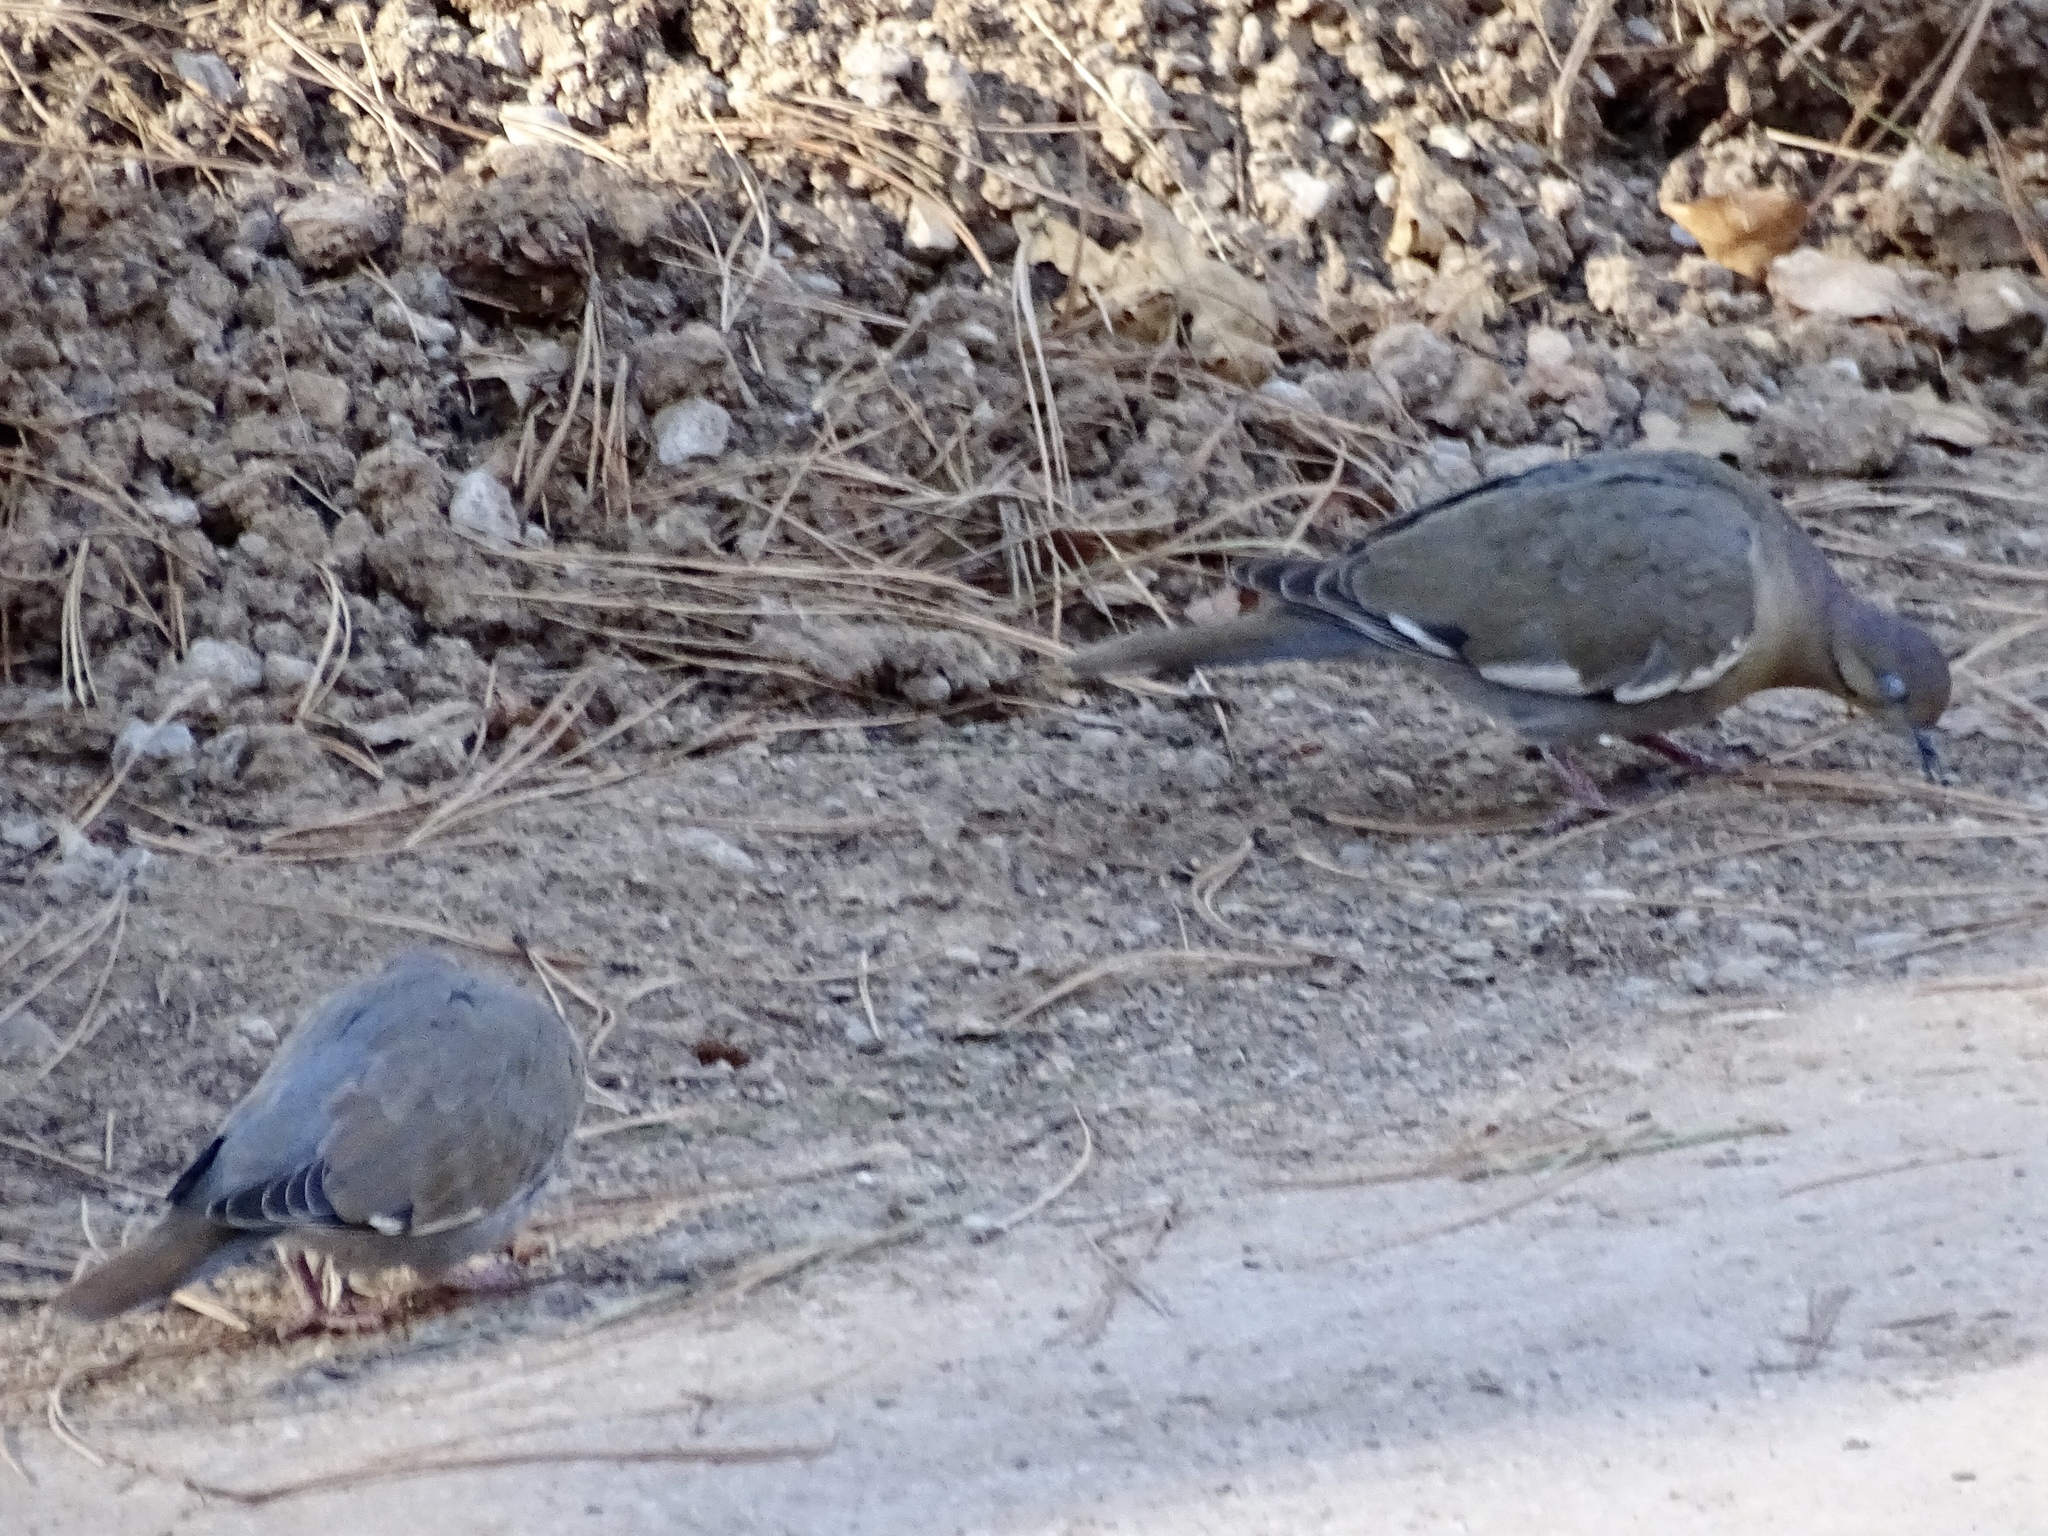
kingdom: Animalia
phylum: Chordata
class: Aves
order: Columbiformes
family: Columbidae
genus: Zenaida
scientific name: Zenaida asiatica
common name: White-winged dove
